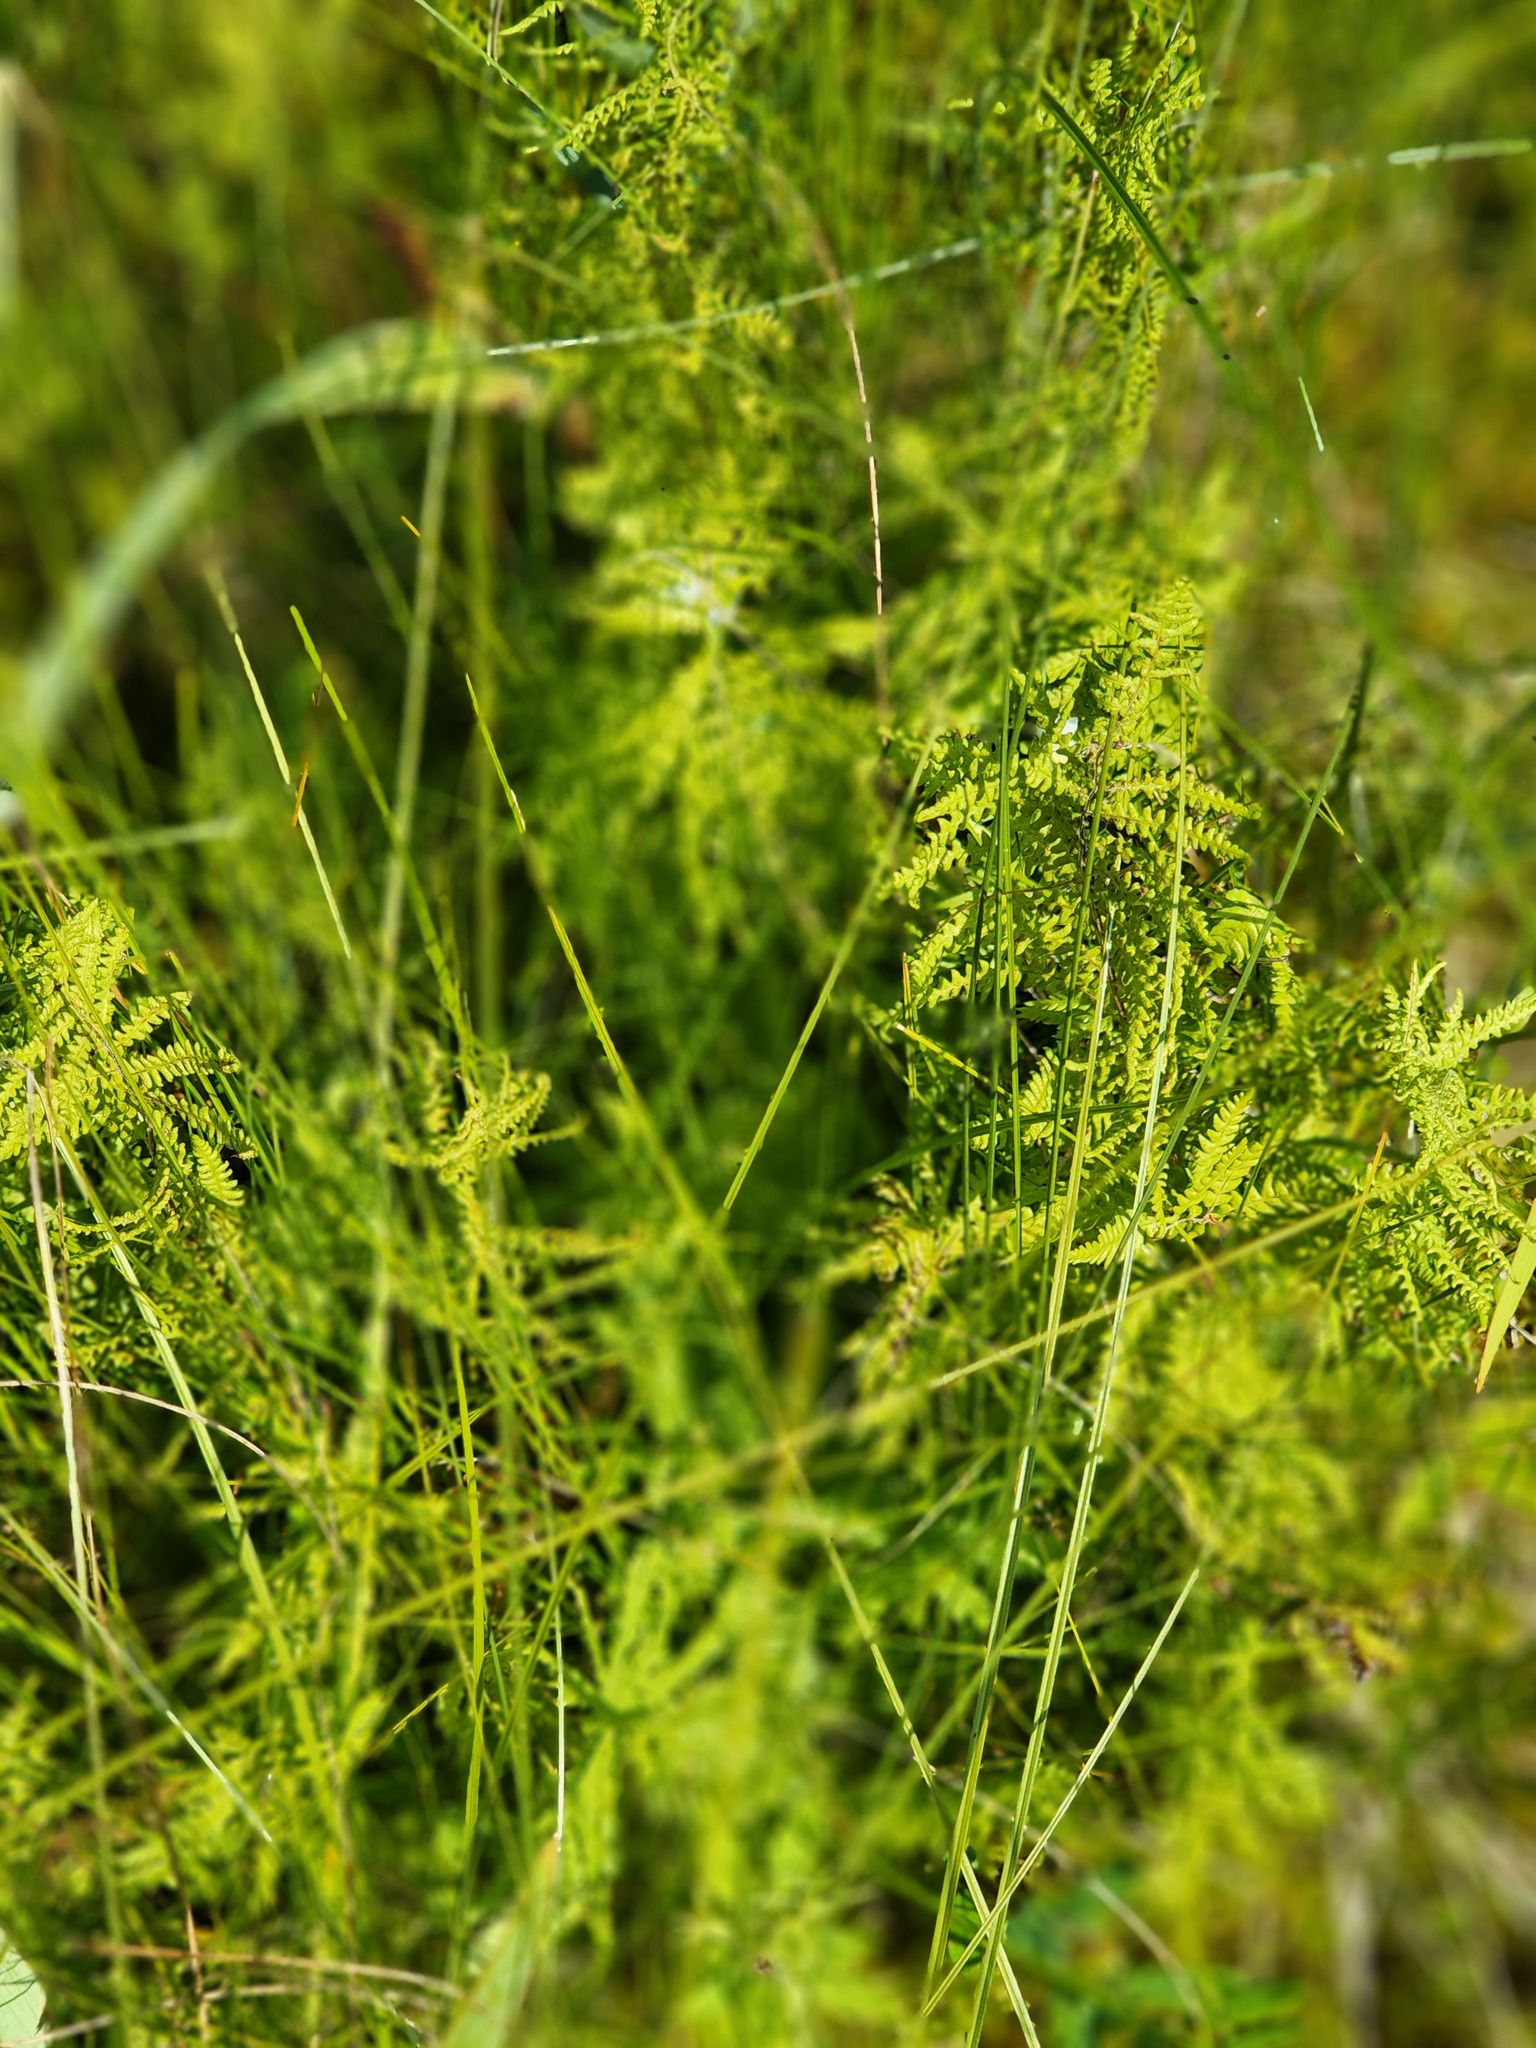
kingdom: Plantae
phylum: Tracheophyta
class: Polypodiopsida
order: Polypodiales
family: Thelypteridaceae
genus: Thelypteris
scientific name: Thelypteris palustris
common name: Marsh fern
